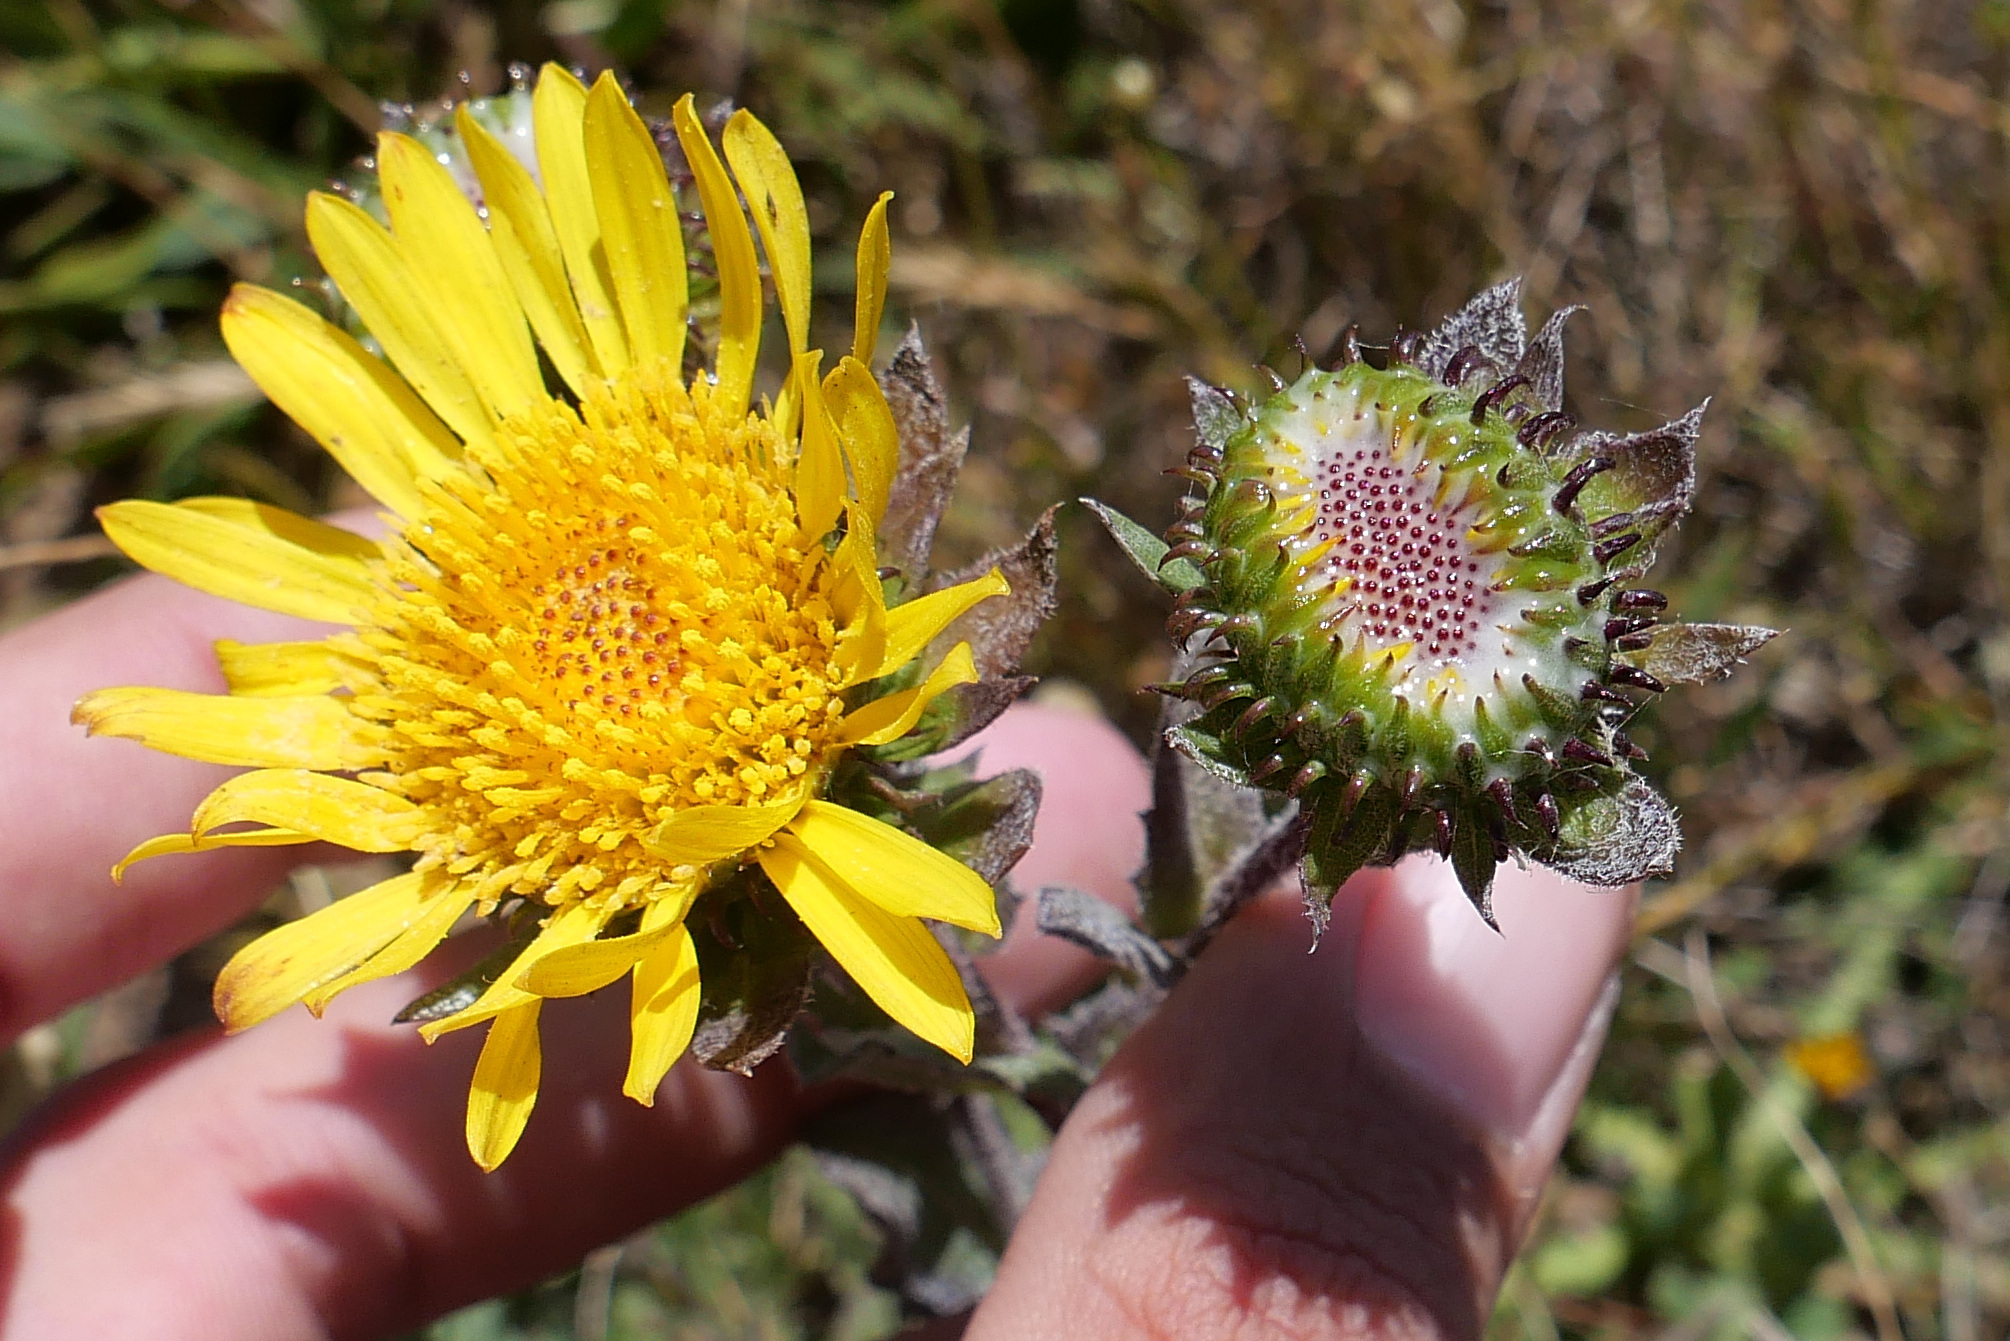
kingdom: Plantae
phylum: Tracheophyta
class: Magnoliopsida
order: Asterales
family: Asteraceae
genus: Grindelia
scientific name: Grindelia hirsutula
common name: Hairy gumweed
